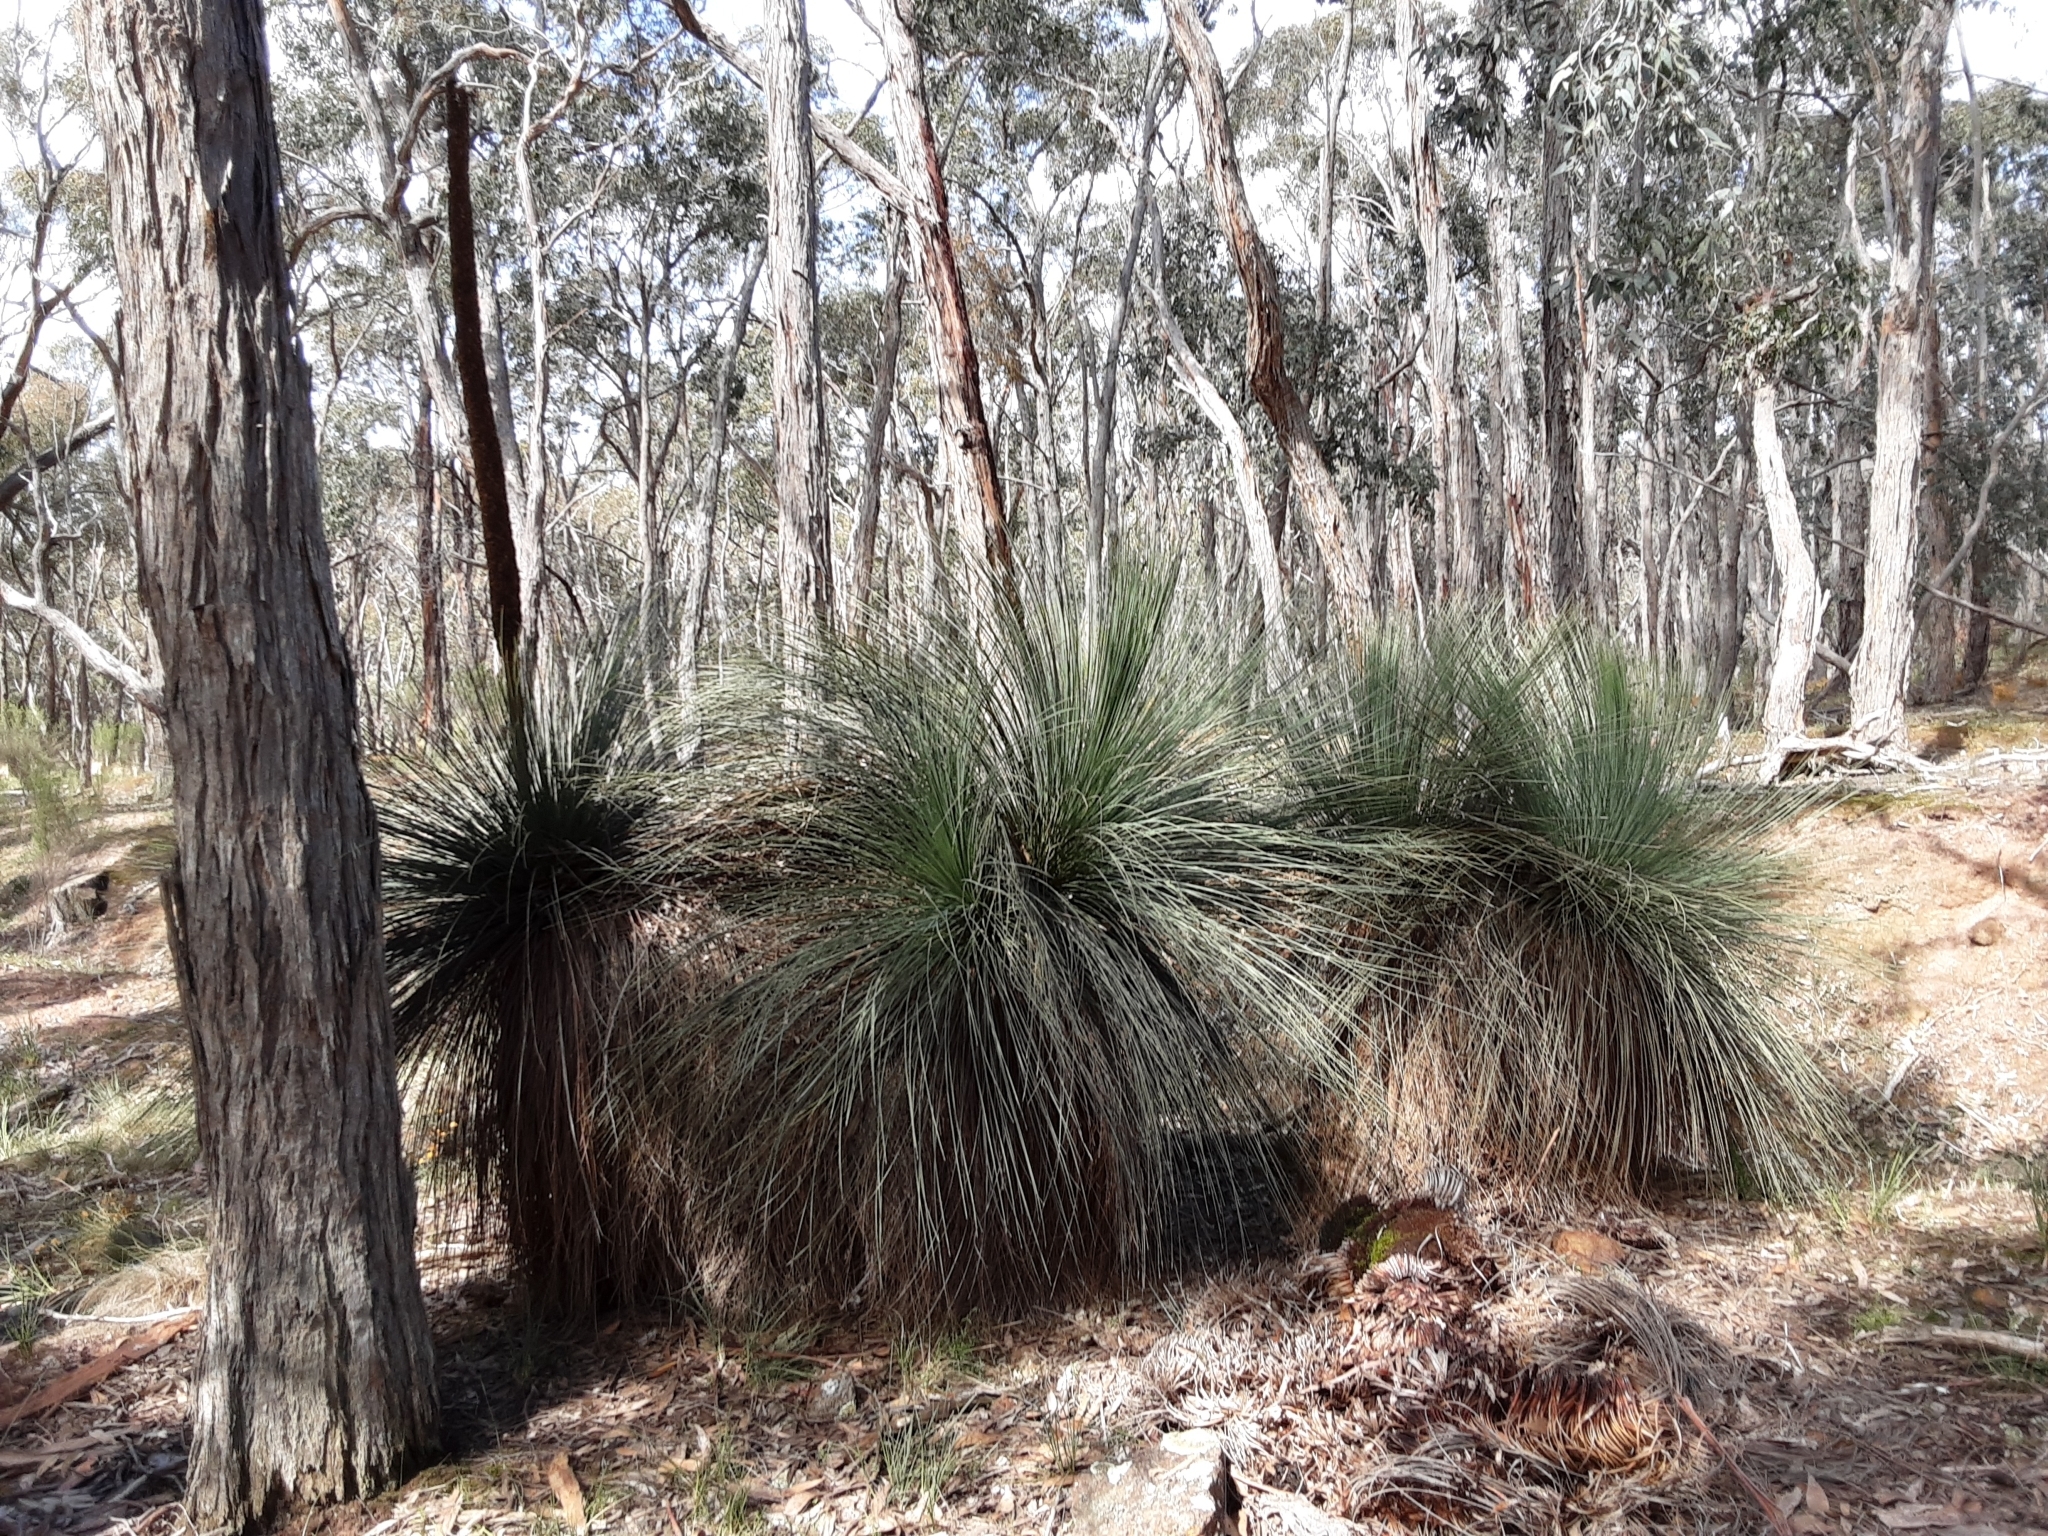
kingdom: Plantae
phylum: Tracheophyta
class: Liliopsida
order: Asparagales
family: Asphodelaceae
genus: Xanthorrhoea
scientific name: Xanthorrhoea australis
